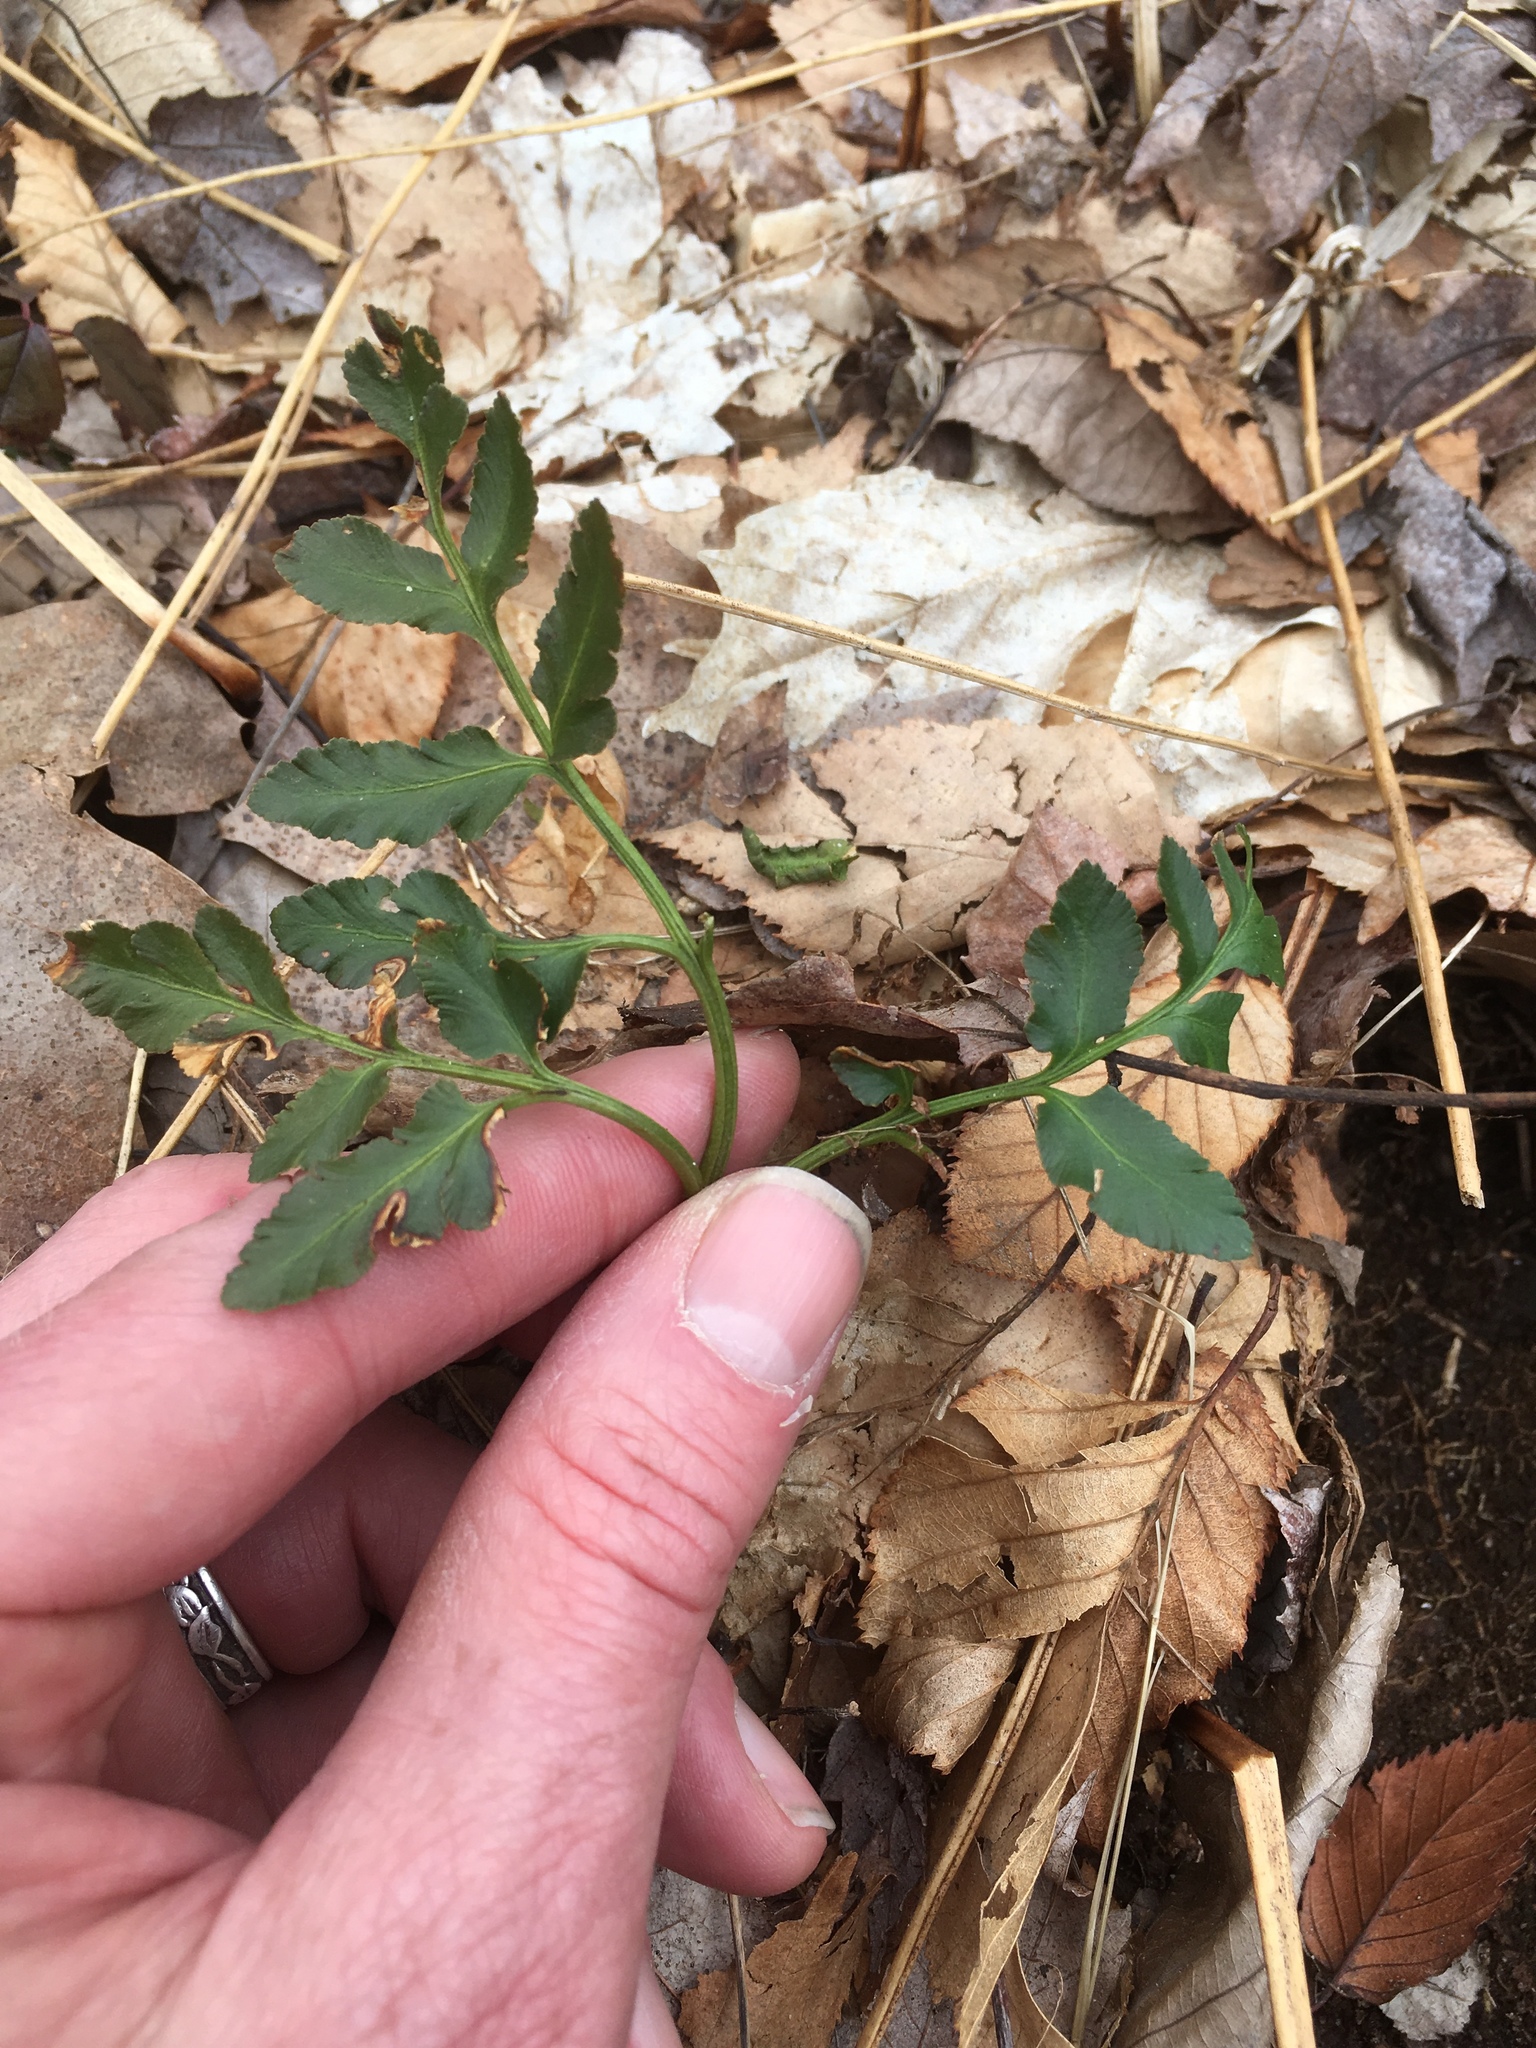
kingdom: Plantae
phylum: Tracheophyta
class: Polypodiopsida
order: Ophioglossales
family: Ophioglossaceae
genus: Sceptridium
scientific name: Sceptridium dissectum
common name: Cut-leaved grapefern
